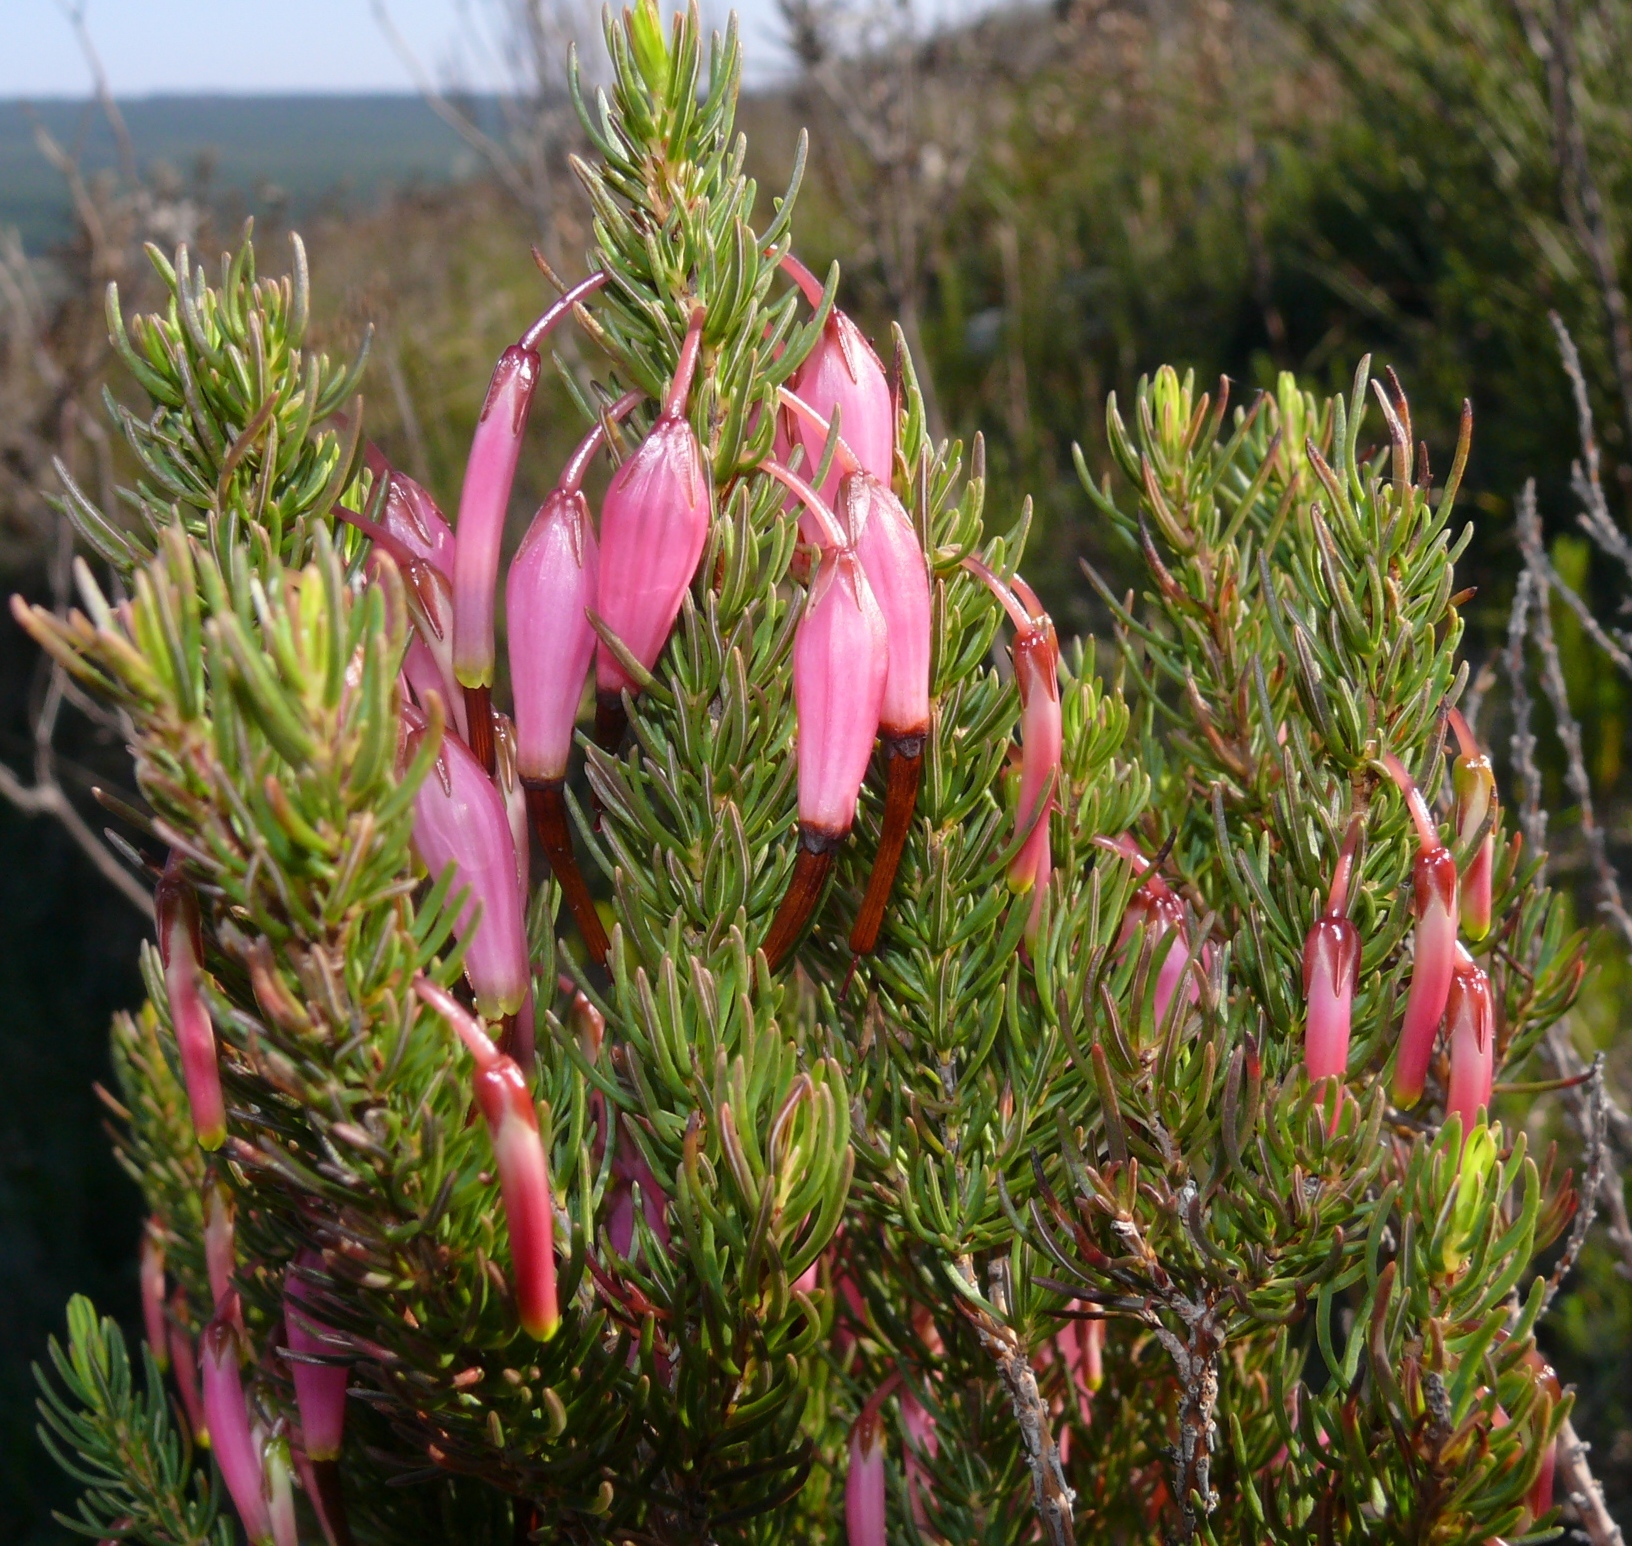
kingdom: Plantae
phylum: Tracheophyta
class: Magnoliopsida
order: Ericales
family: Ericaceae
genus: Erica
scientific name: Erica plukenetii
